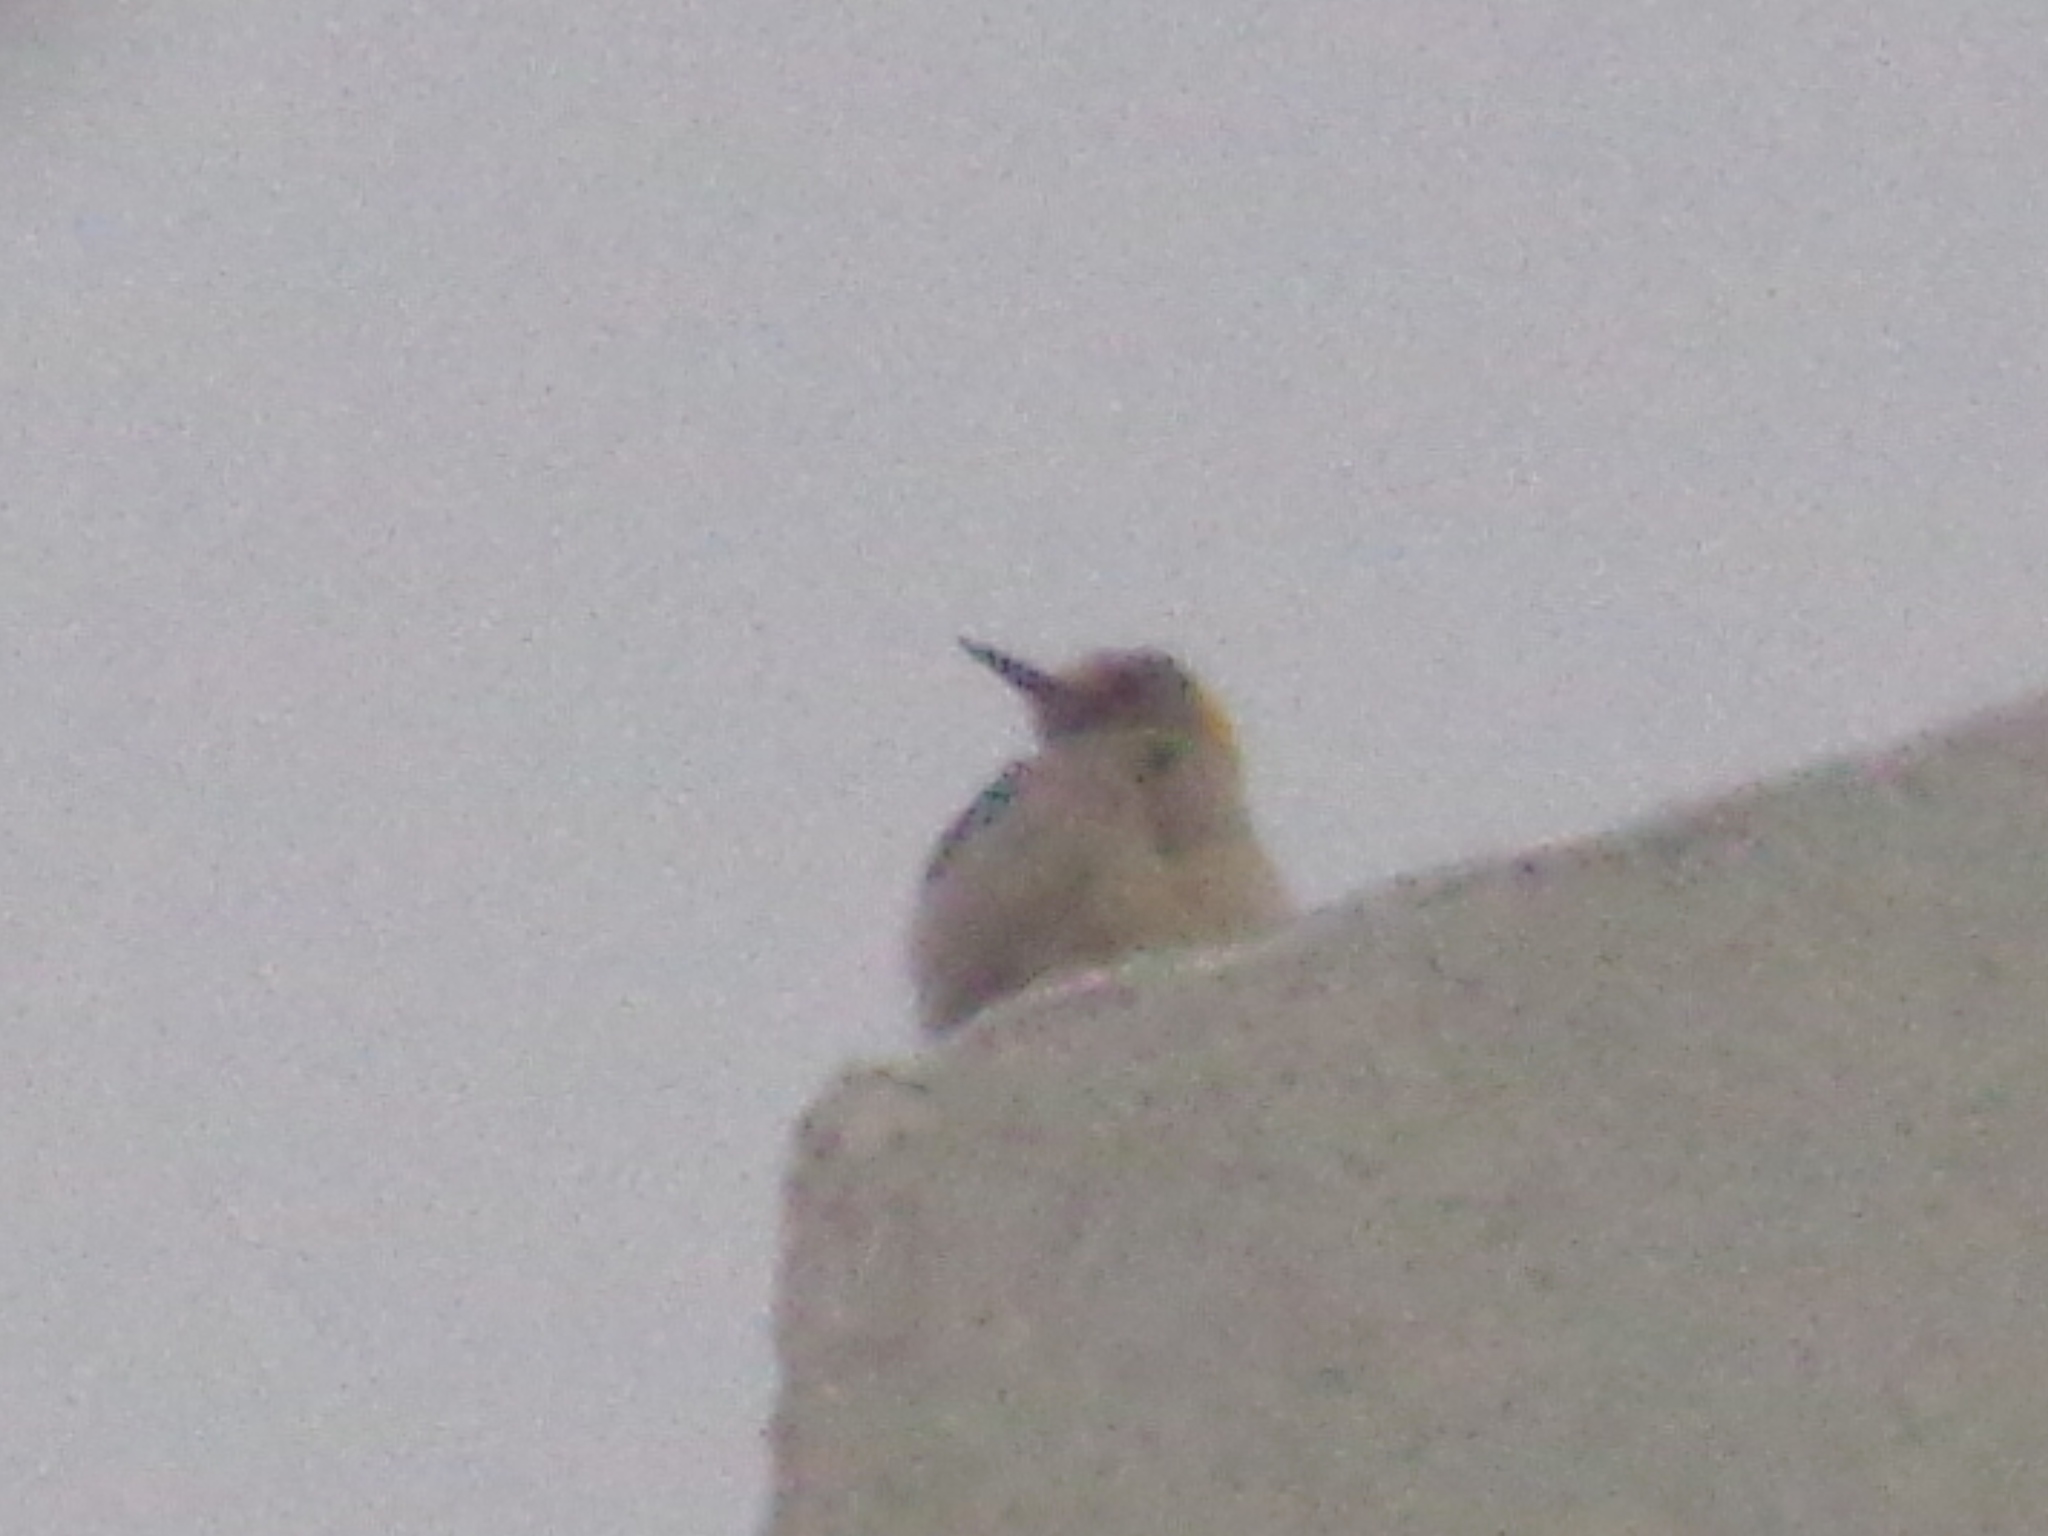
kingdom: Animalia
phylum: Chordata
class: Aves
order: Piciformes
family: Picidae
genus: Melanerpes
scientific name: Melanerpes aurifrons
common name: Golden-fronted woodpecker
